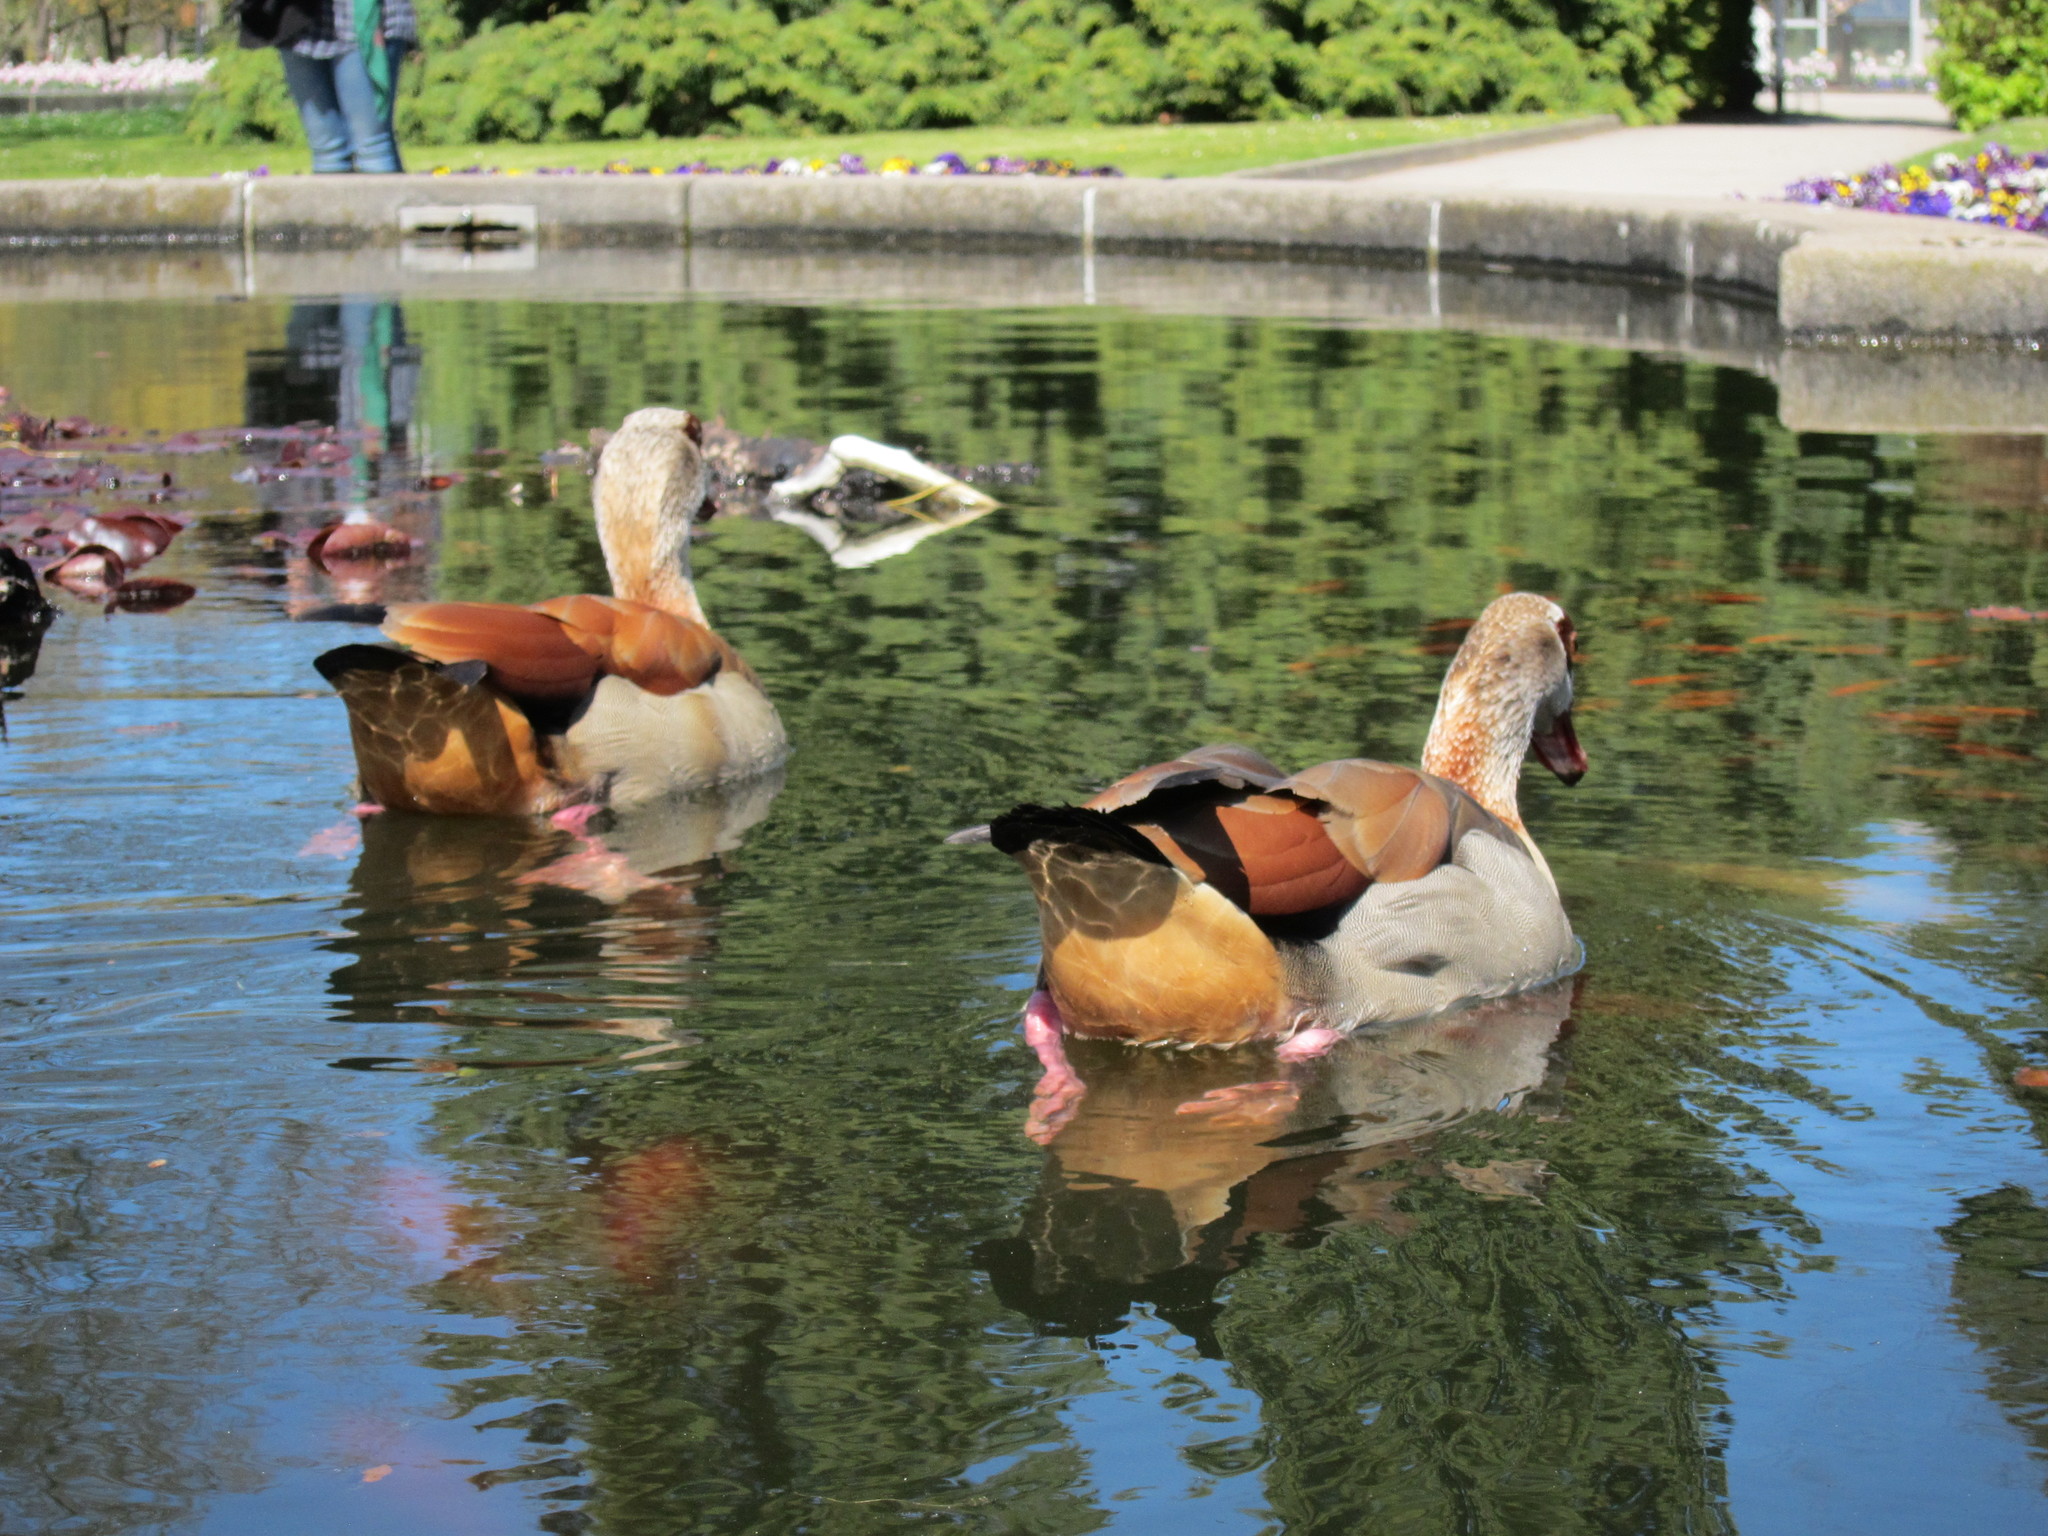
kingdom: Animalia
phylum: Chordata
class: Aves
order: Anseriformes
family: Anatidae
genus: Alopochen
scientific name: Alopochen aegyptiaca
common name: Egyptian goose
